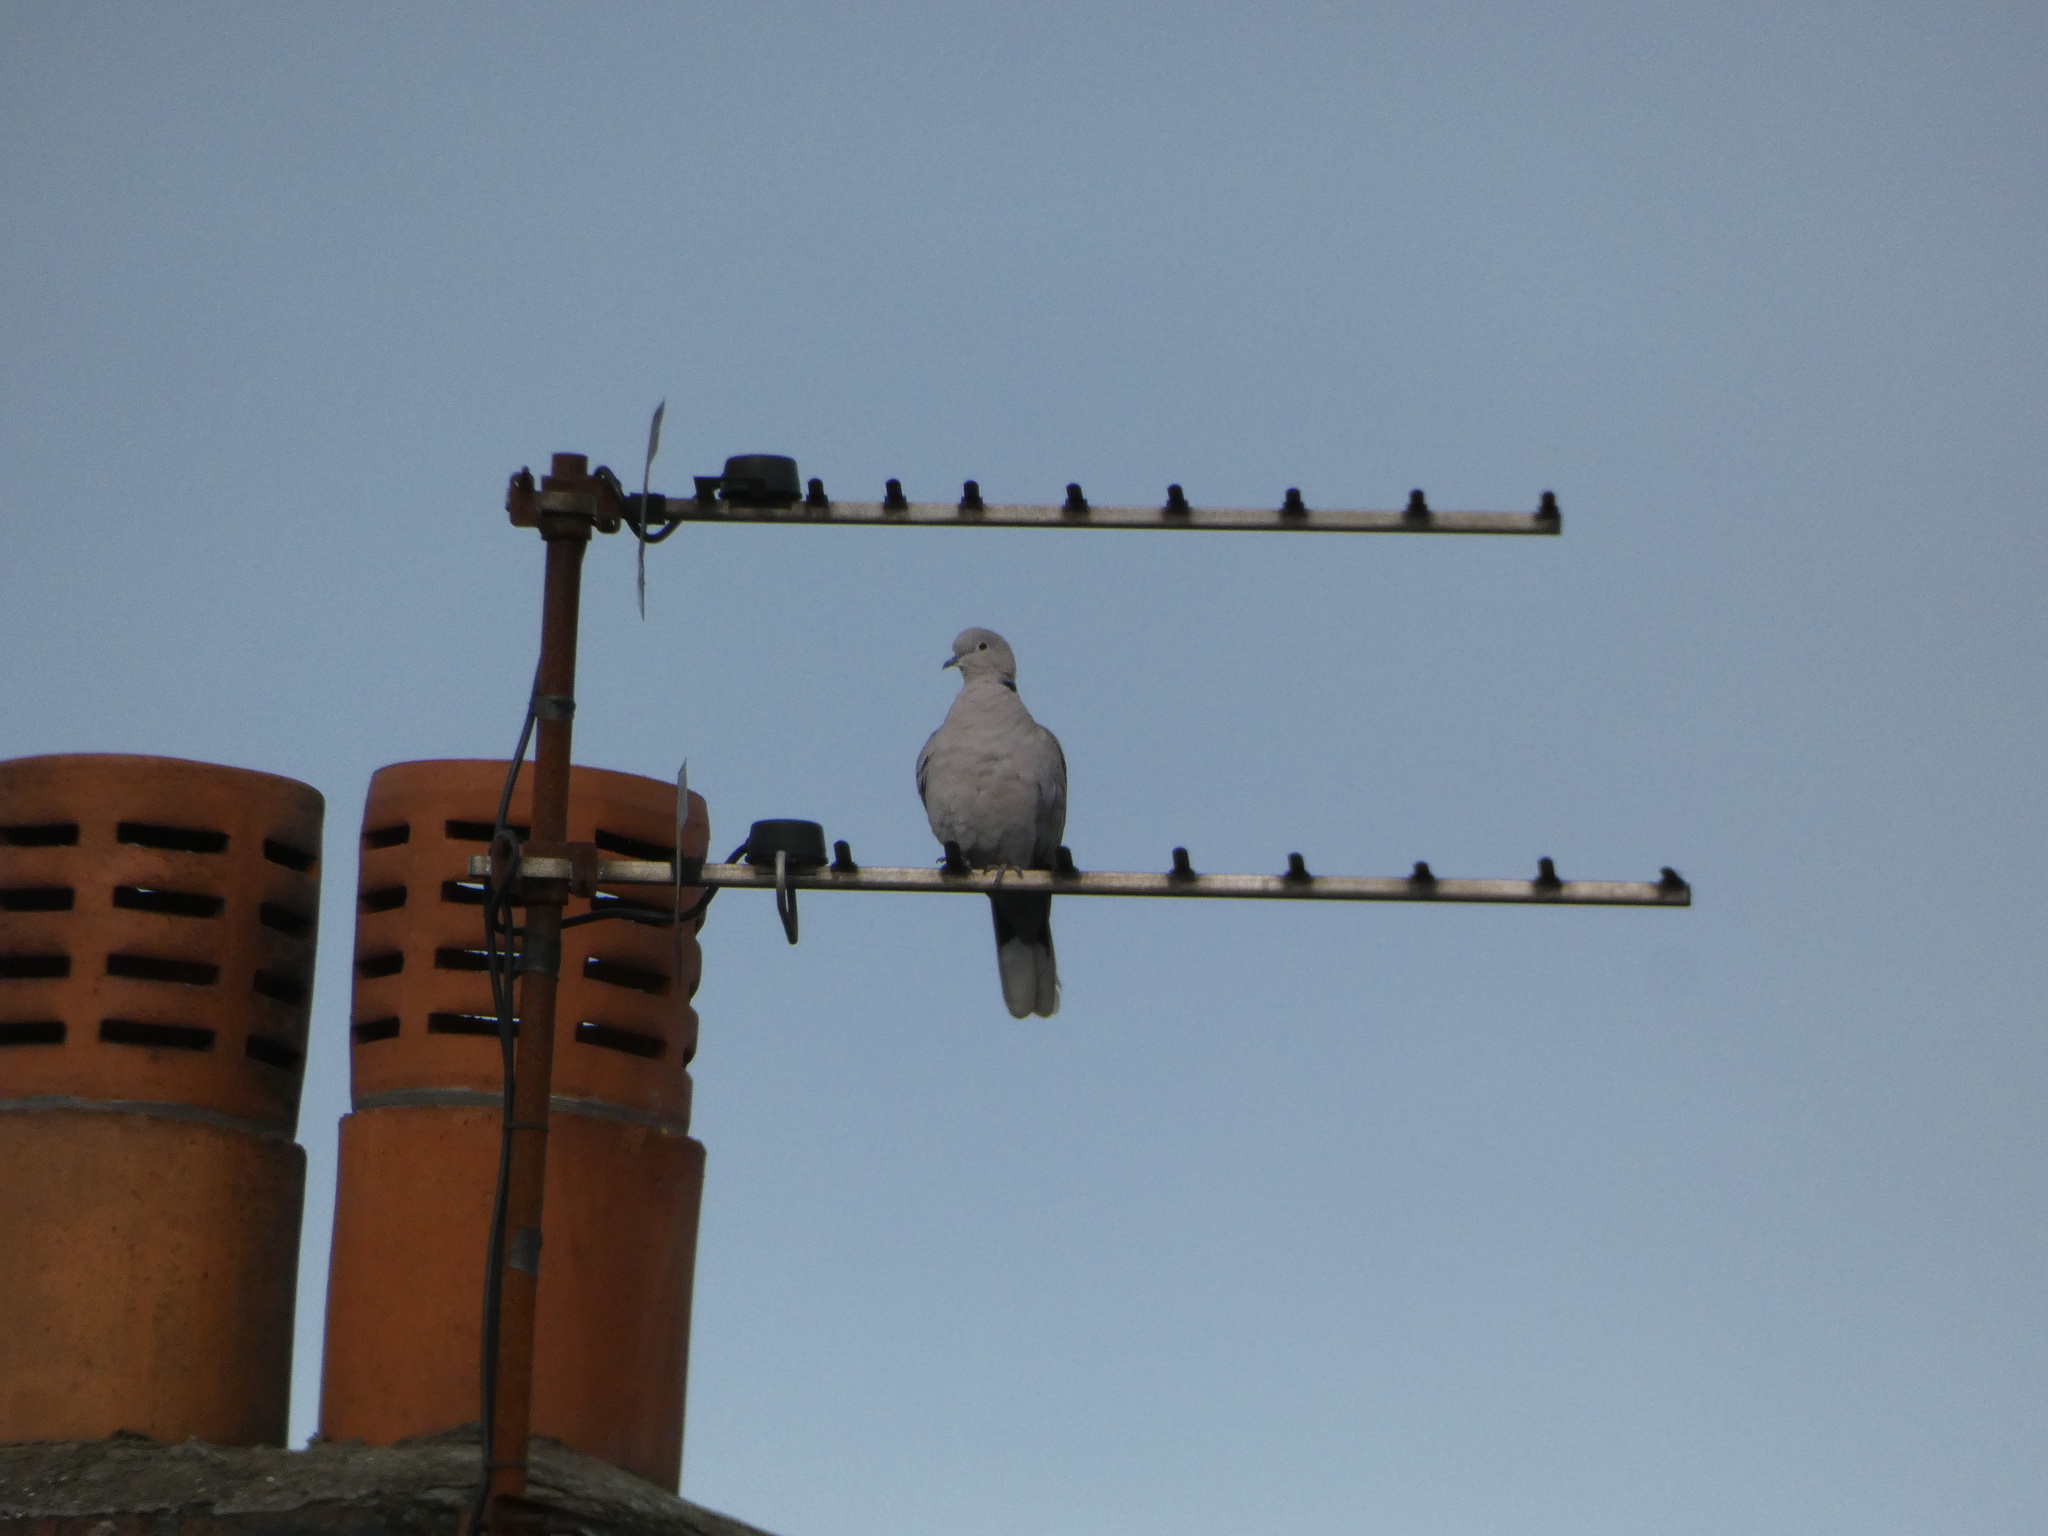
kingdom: Animalia
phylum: Chordata
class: Aves
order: Columbiformes
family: Columbidae
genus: Streptopelia
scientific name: Streptopelia decaocto
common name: Eurasian collared dove
